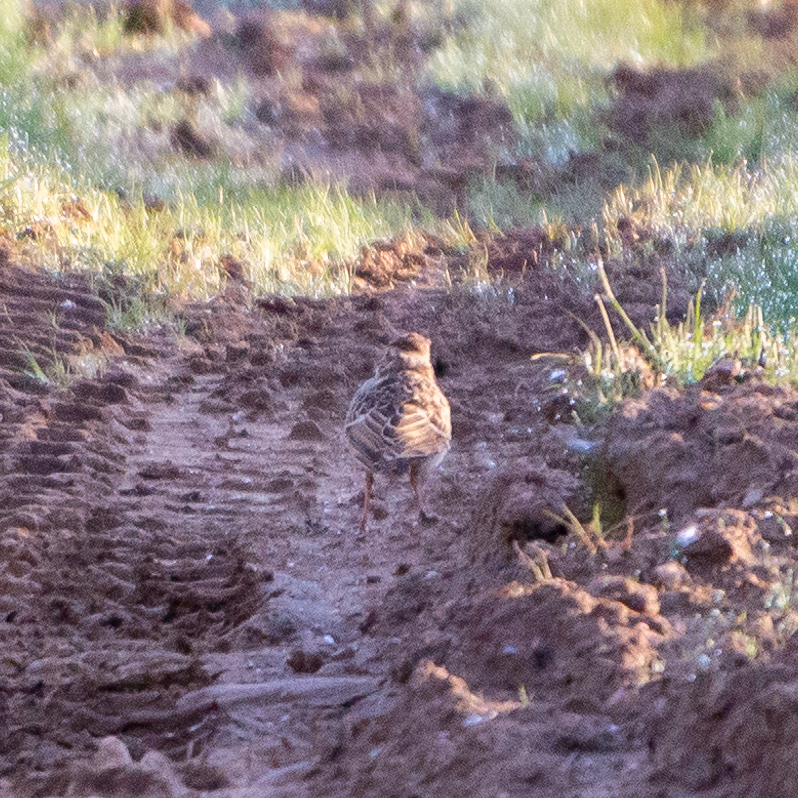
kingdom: Animalia
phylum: Chordata
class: Aves
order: Passeriformes
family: Alaudidae
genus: Lullula
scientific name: Lullula arborea
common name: Woodlark
